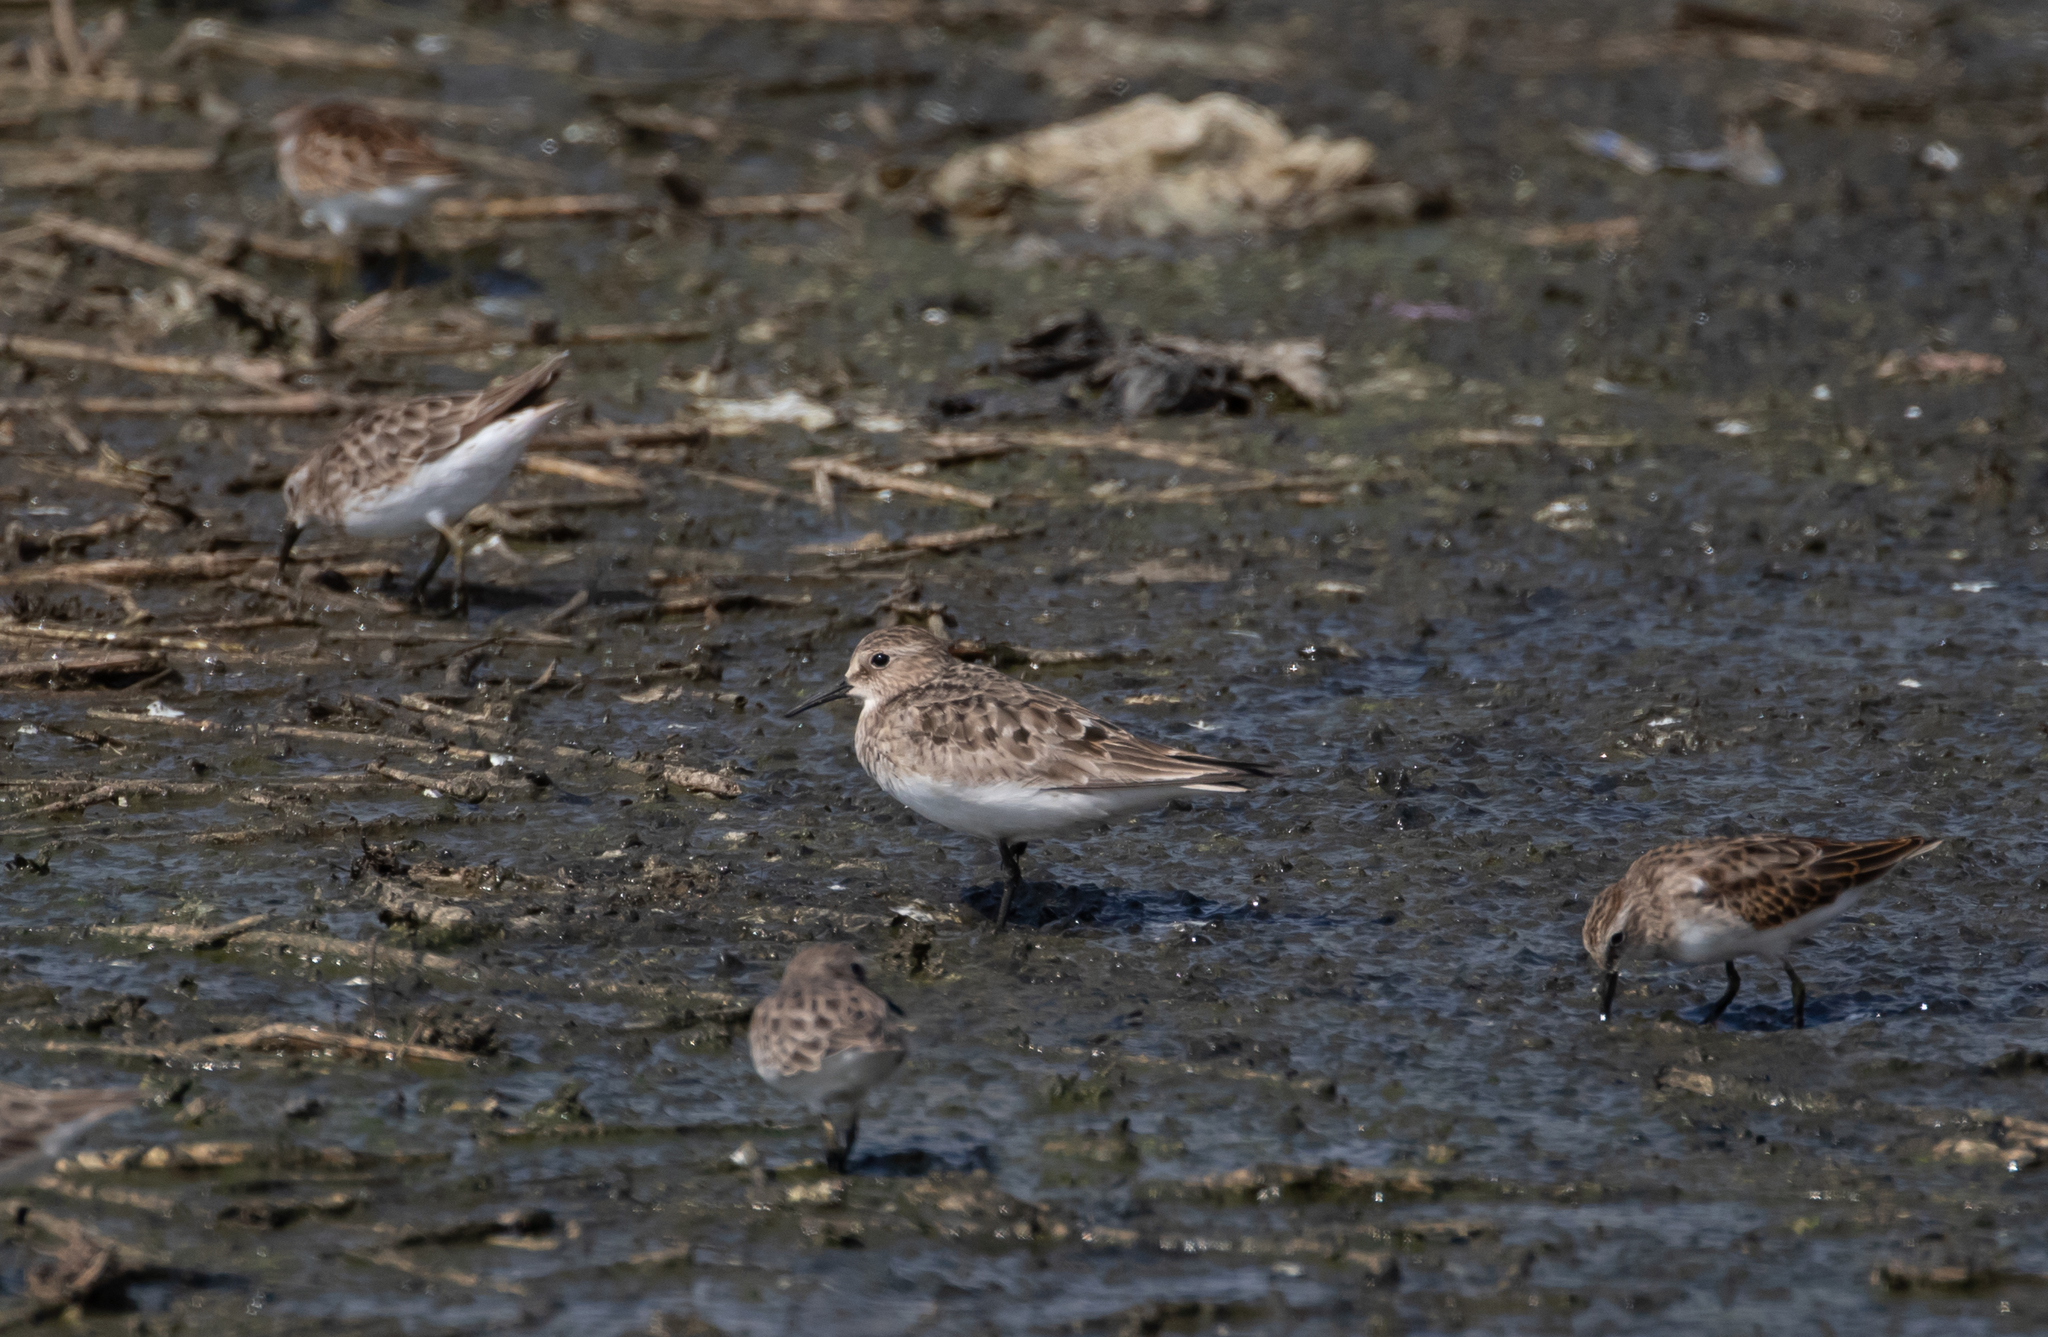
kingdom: Animalia
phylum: Chordata
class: Aves
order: Charadriiformes
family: Scolopacidae
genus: Calidris
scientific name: Calidris bairdii
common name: Baird's sandpiper
